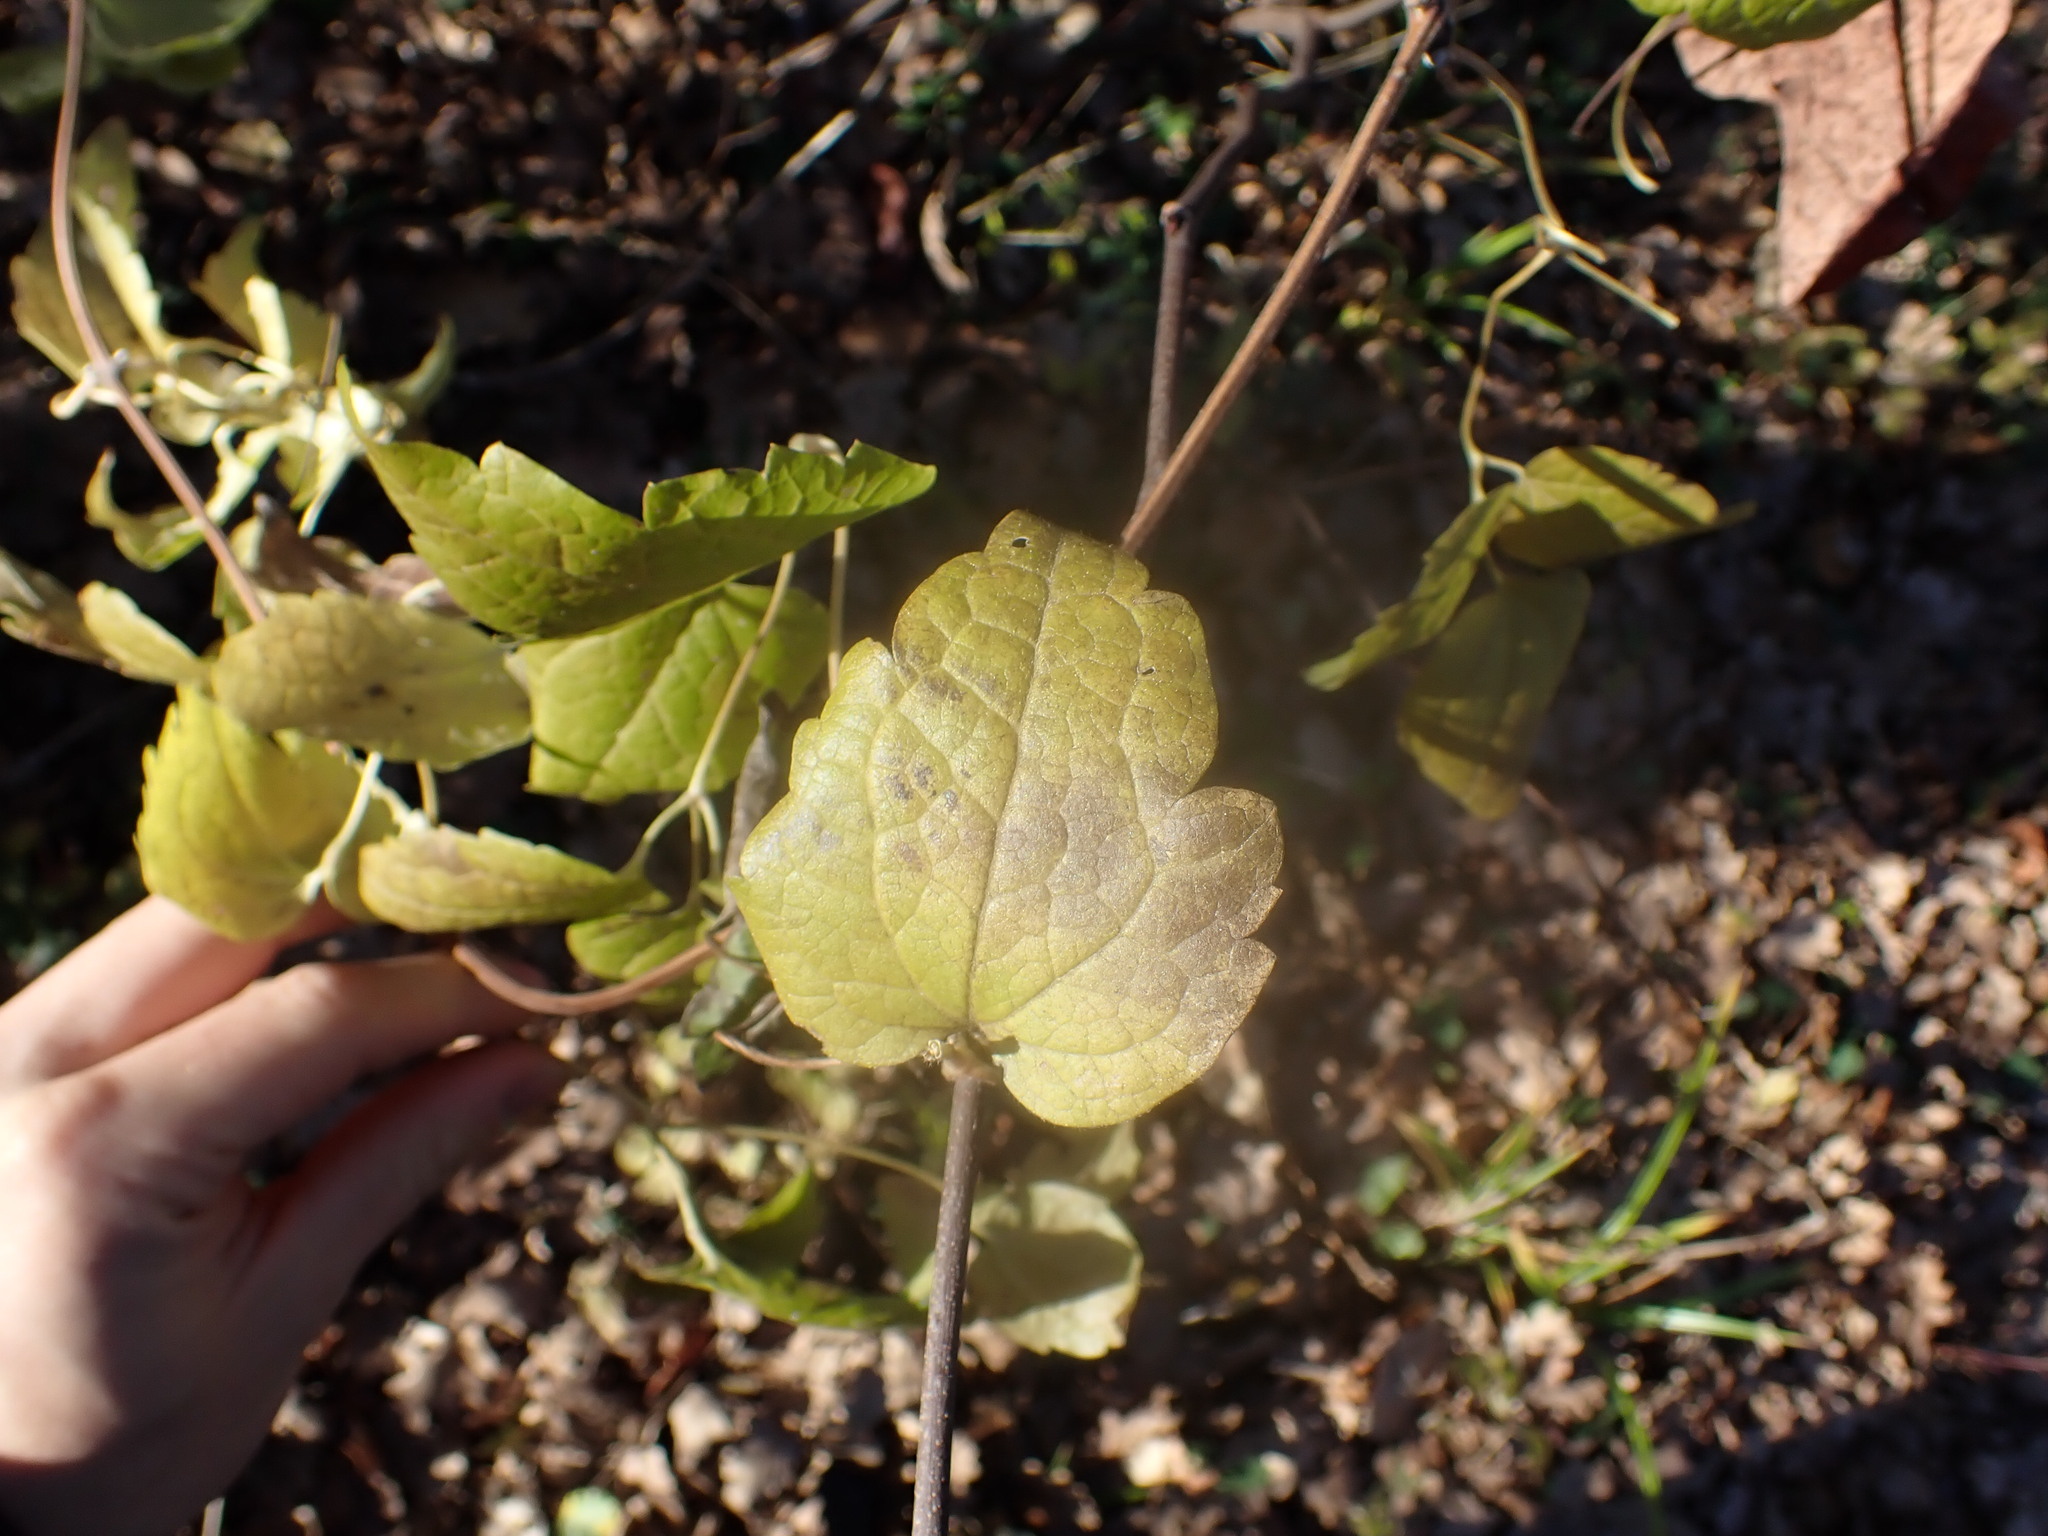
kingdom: Plantae
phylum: Tracheophyta
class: Magnoliopsida
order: Ranunculales
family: Ranunculaceae
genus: Clematis
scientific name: Clematis vitalba
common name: Evergreen clematis
